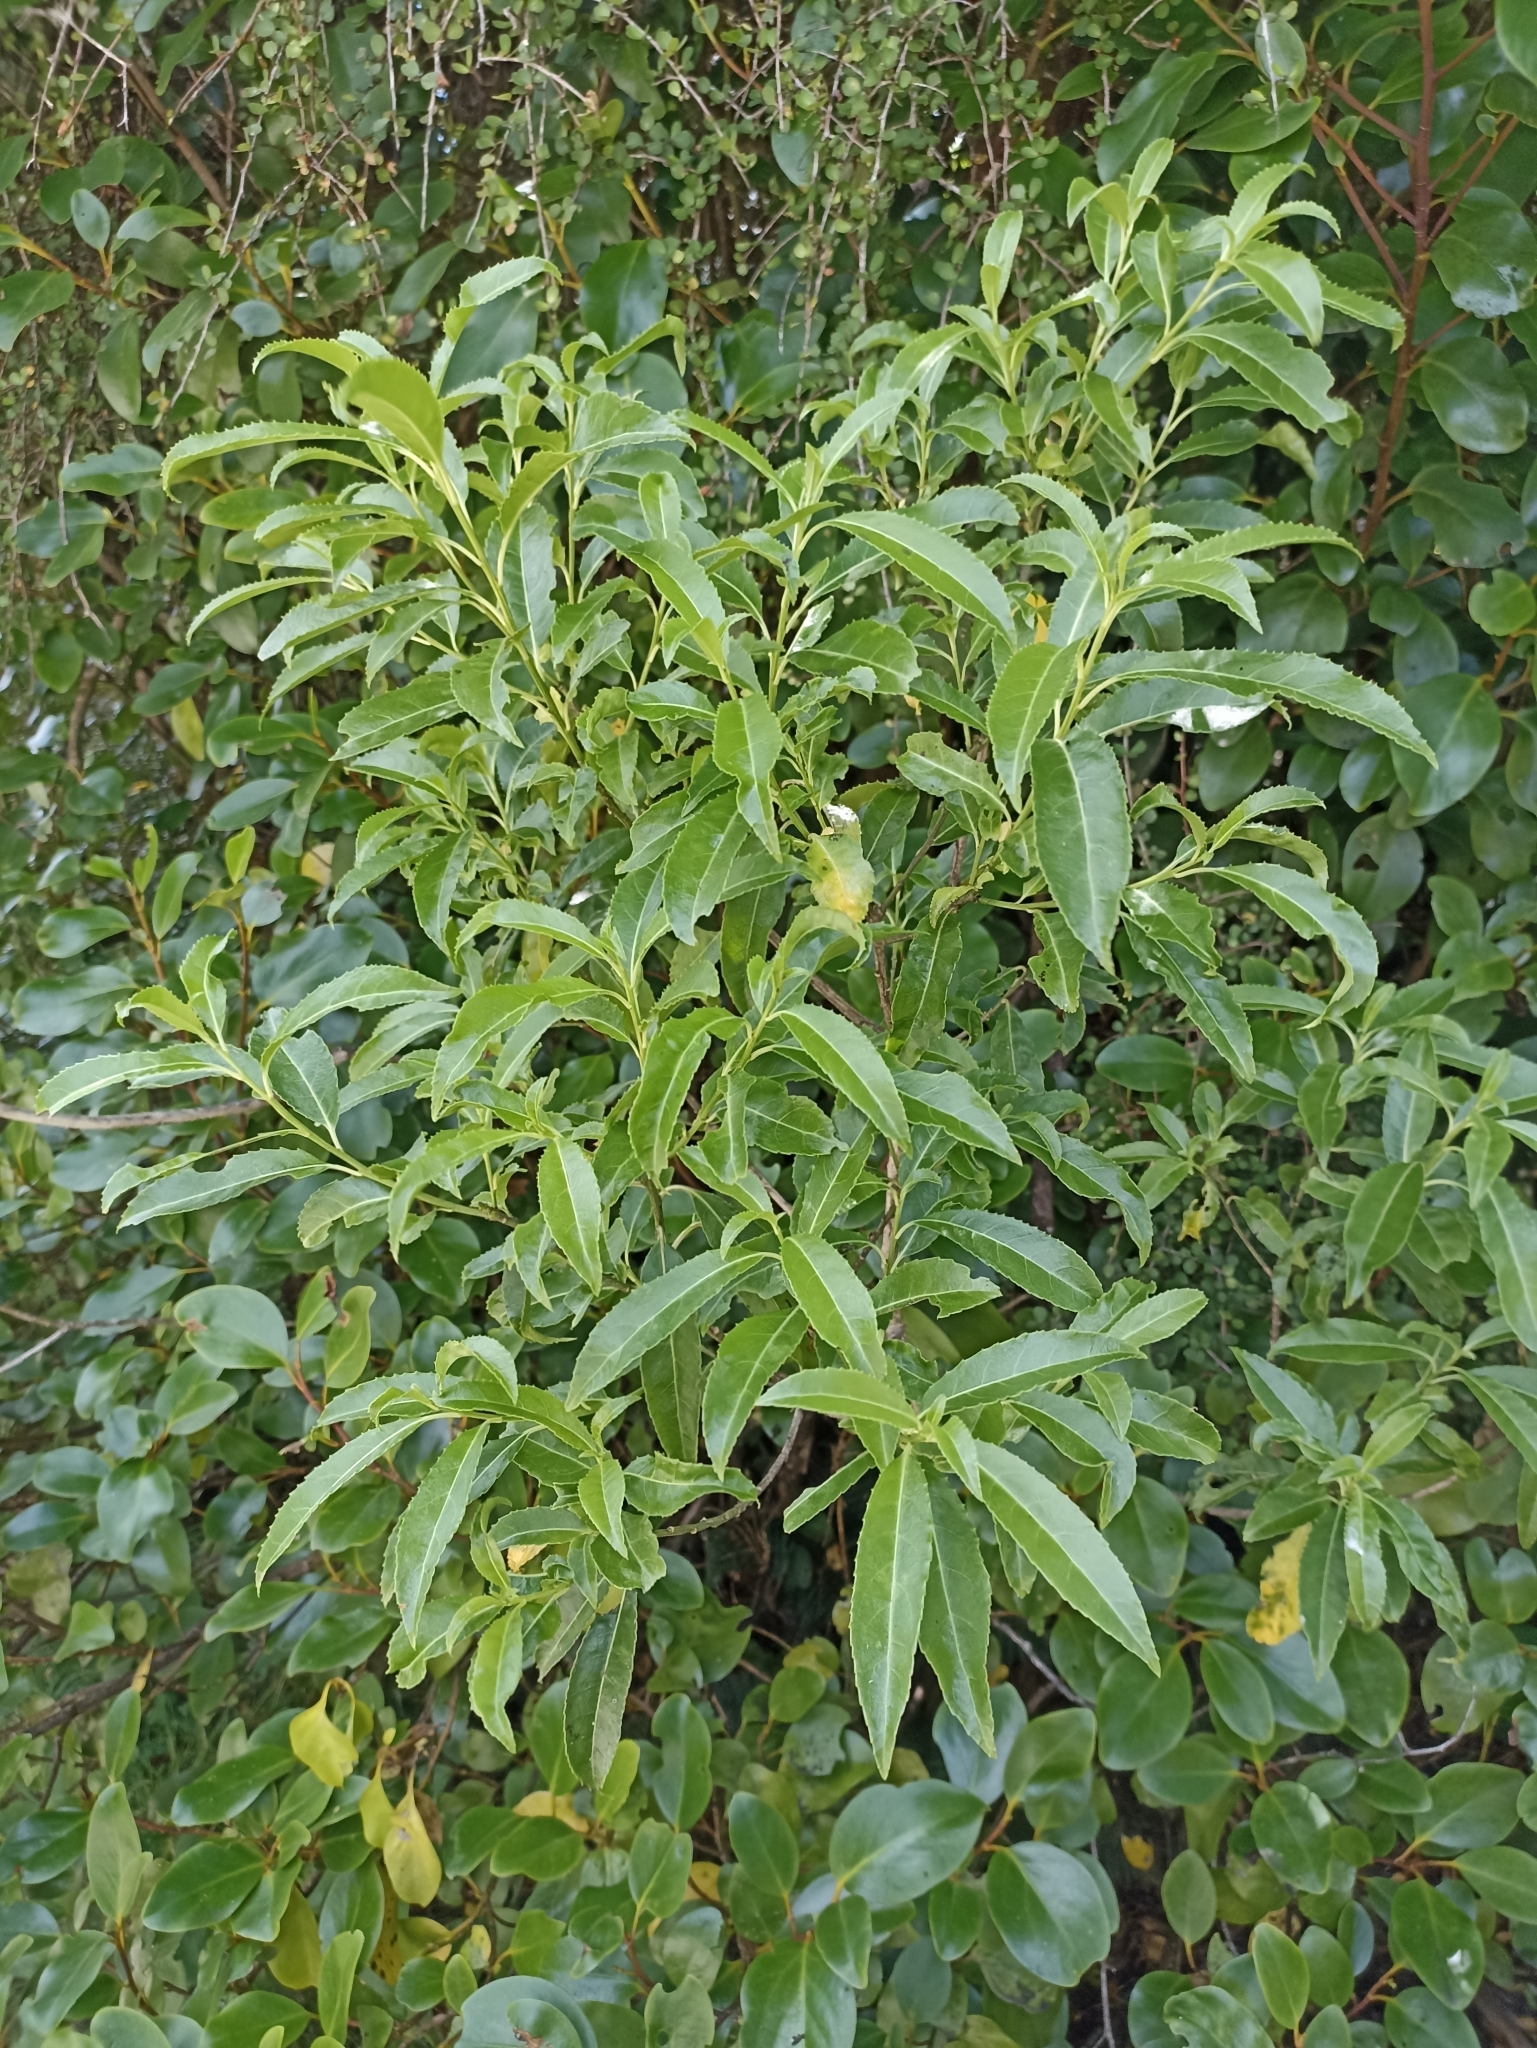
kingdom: Plantae
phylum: Tracheophyta
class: Magnoliopsida
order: Malpighiales
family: Violaceae
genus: Melicytus
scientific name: Melicytus lanceolatus
